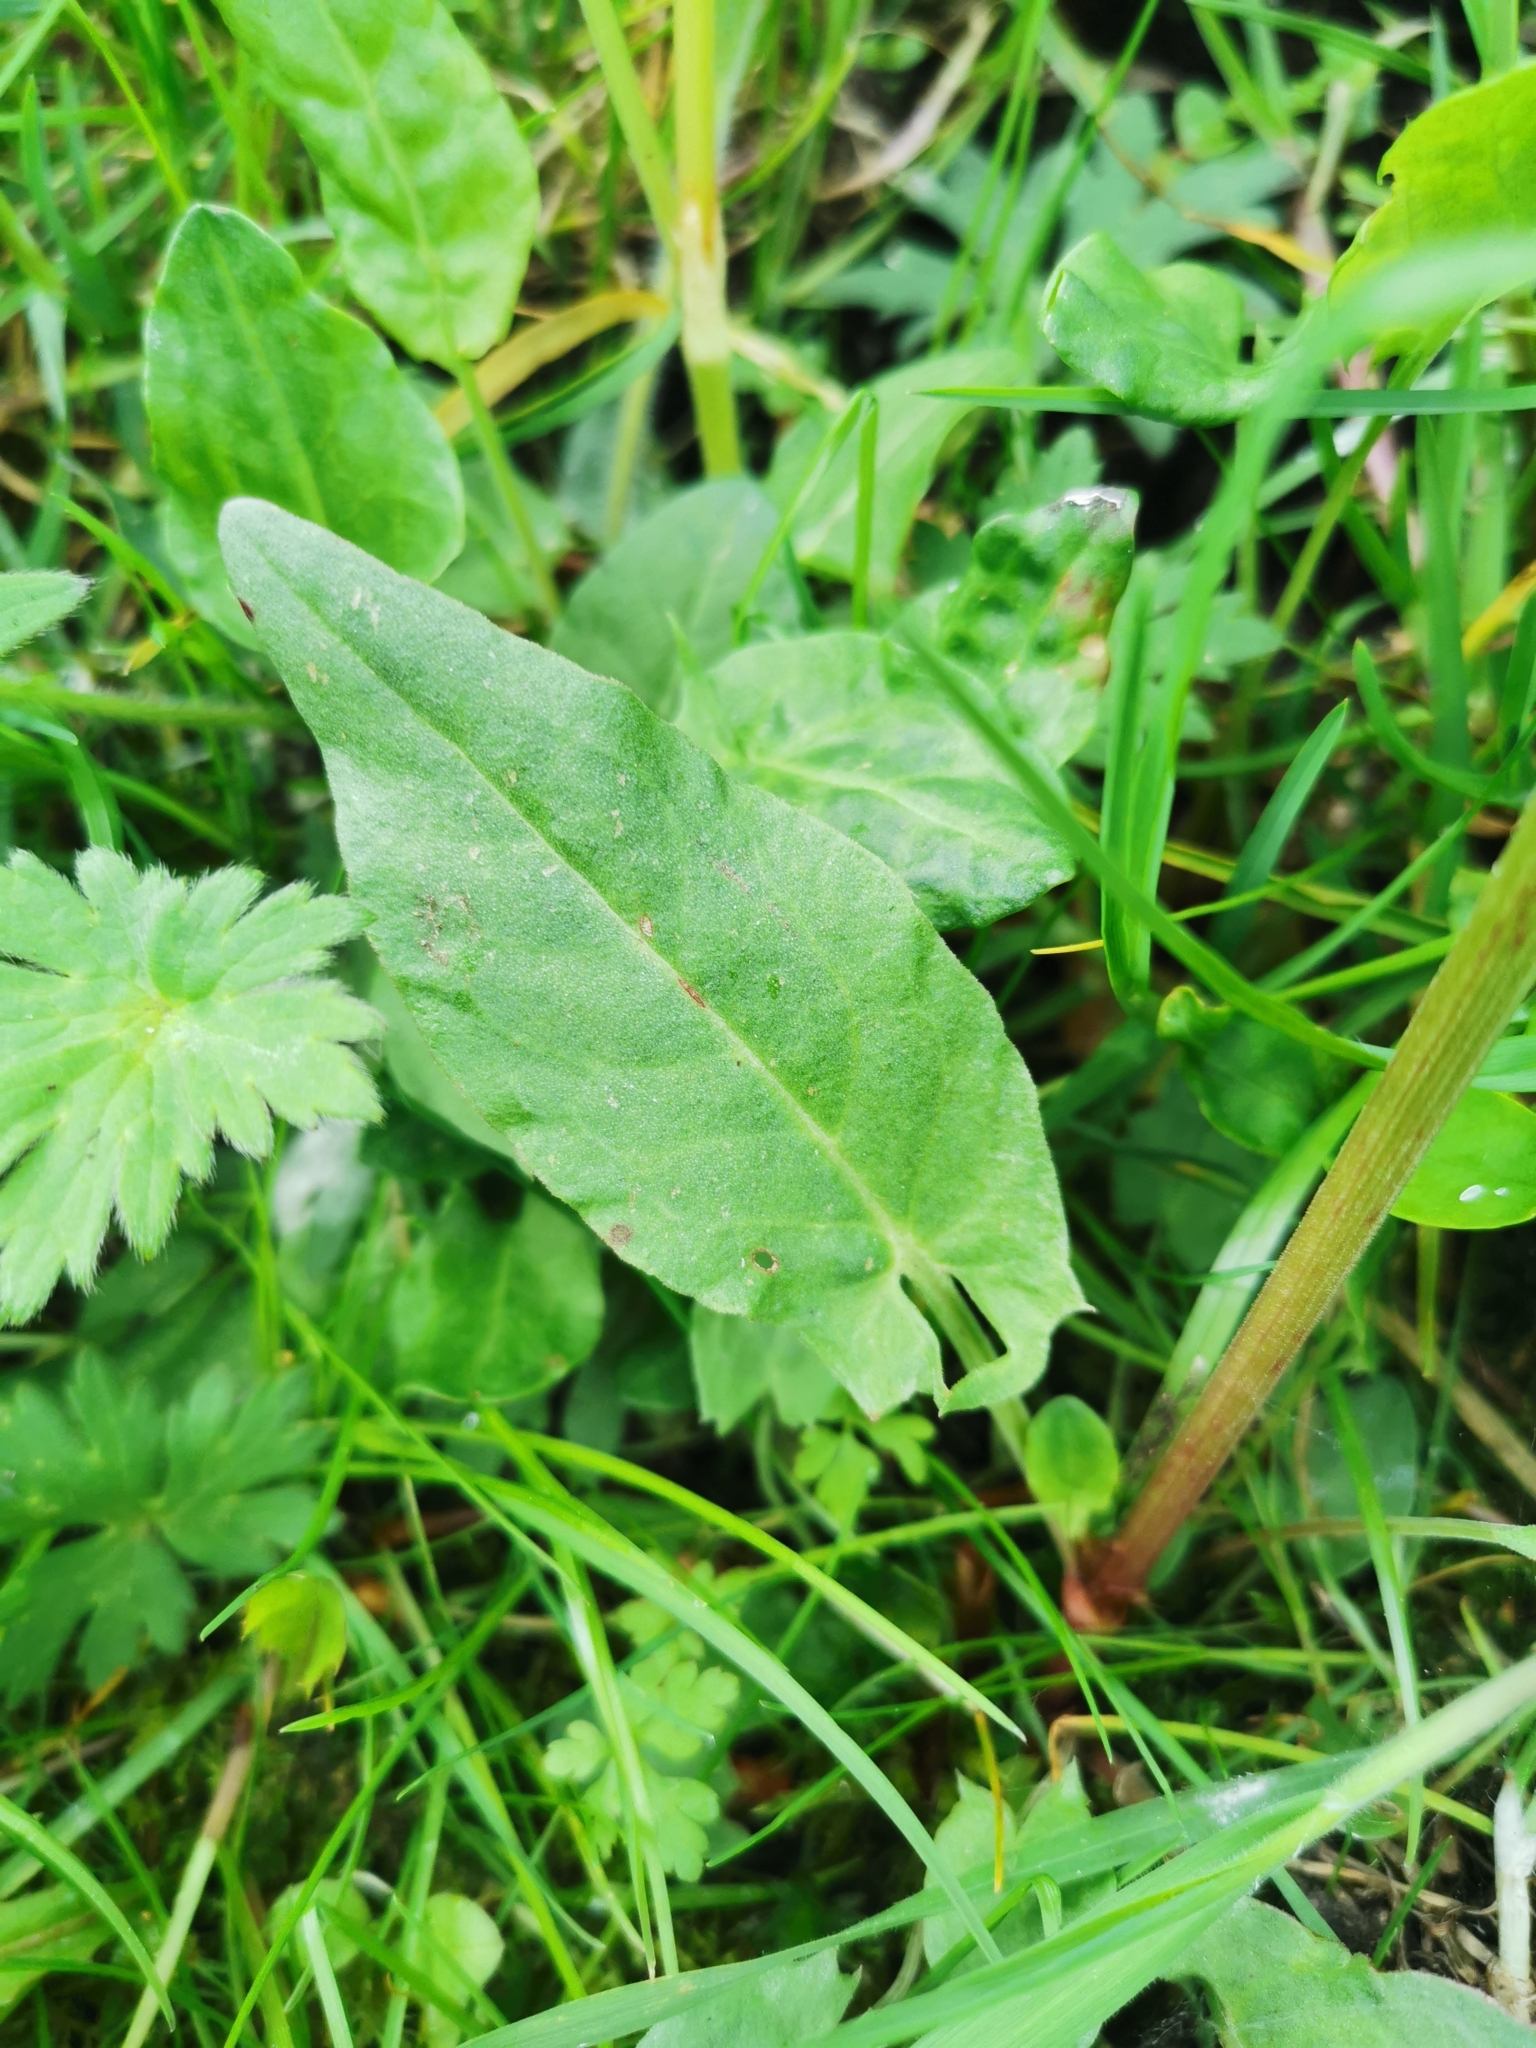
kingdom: Plantae
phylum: Tracheophyta
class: Magnoliopsida
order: Caryophyllales
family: Polygonaceae
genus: Rumex
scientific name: Rumex acetosa
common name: Garden sorrel
